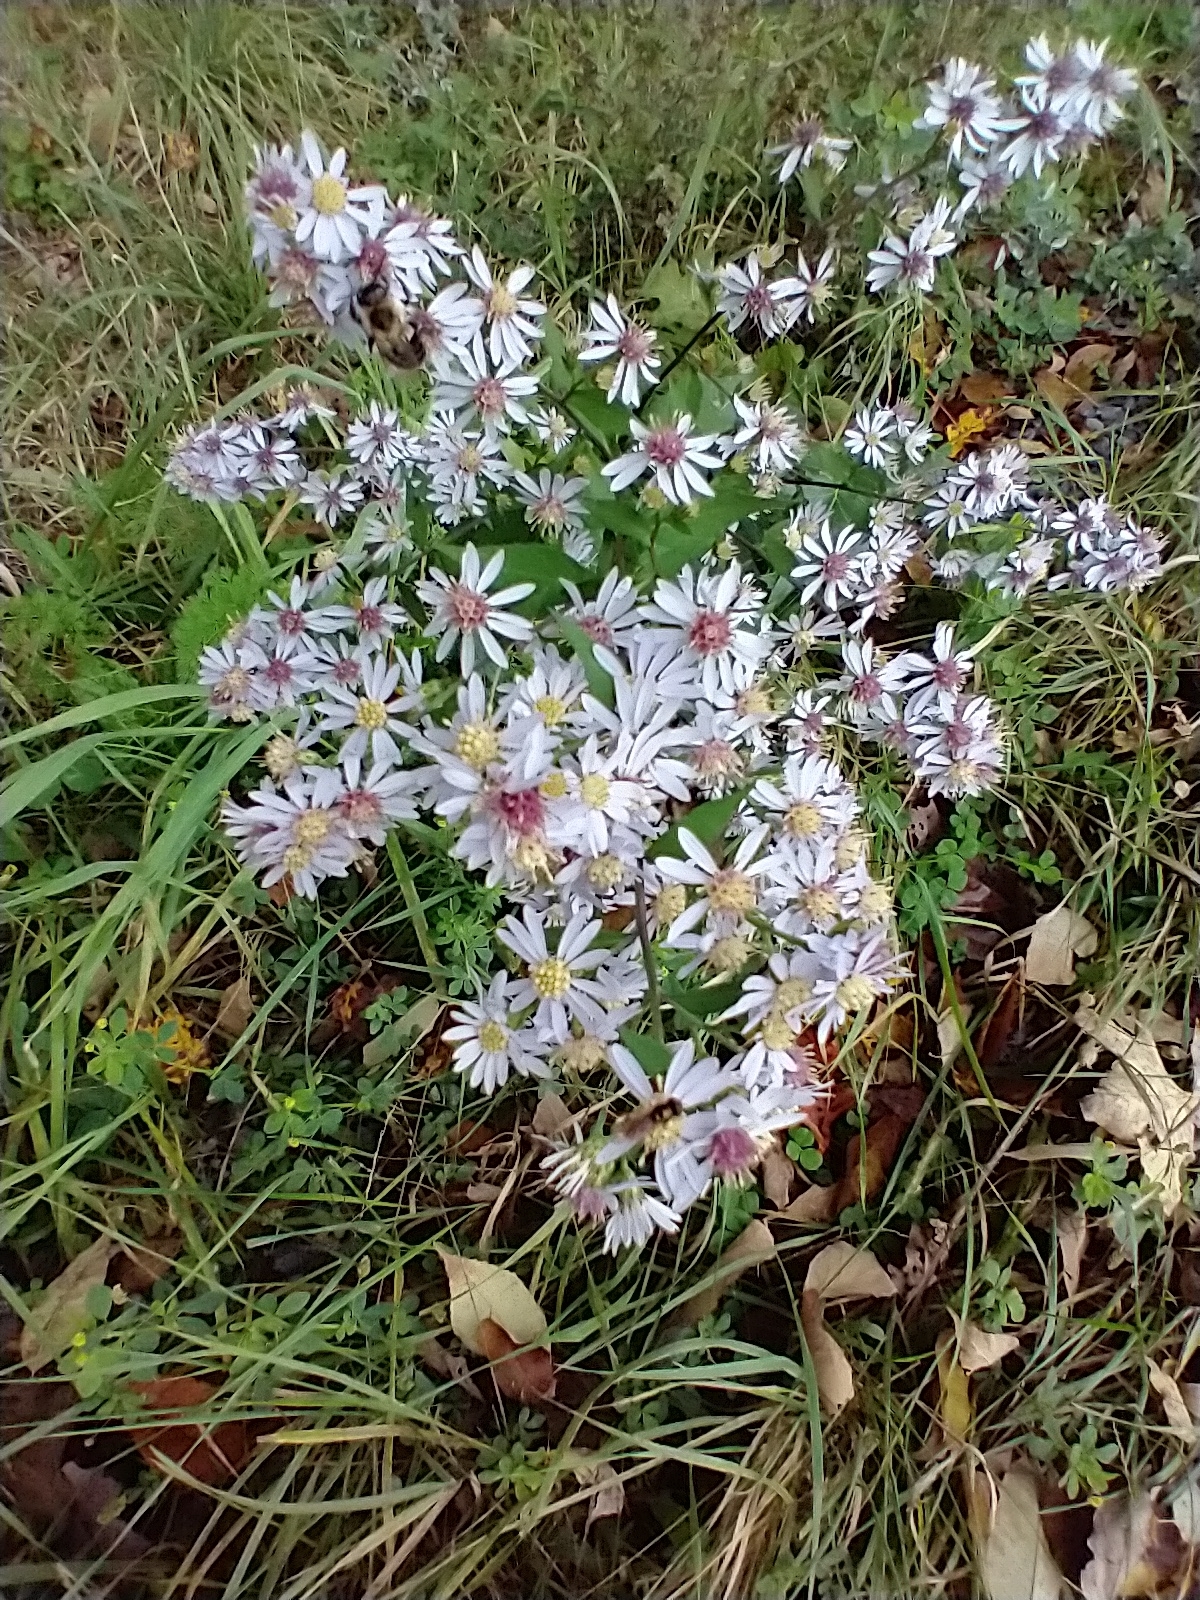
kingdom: Plantae
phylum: Tracheophyta
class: Magnoliopsida
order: Asterales
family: Asteraceae
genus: Symphyotrichum
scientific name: Symphyotrichum cordifolium
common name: Beeweed
